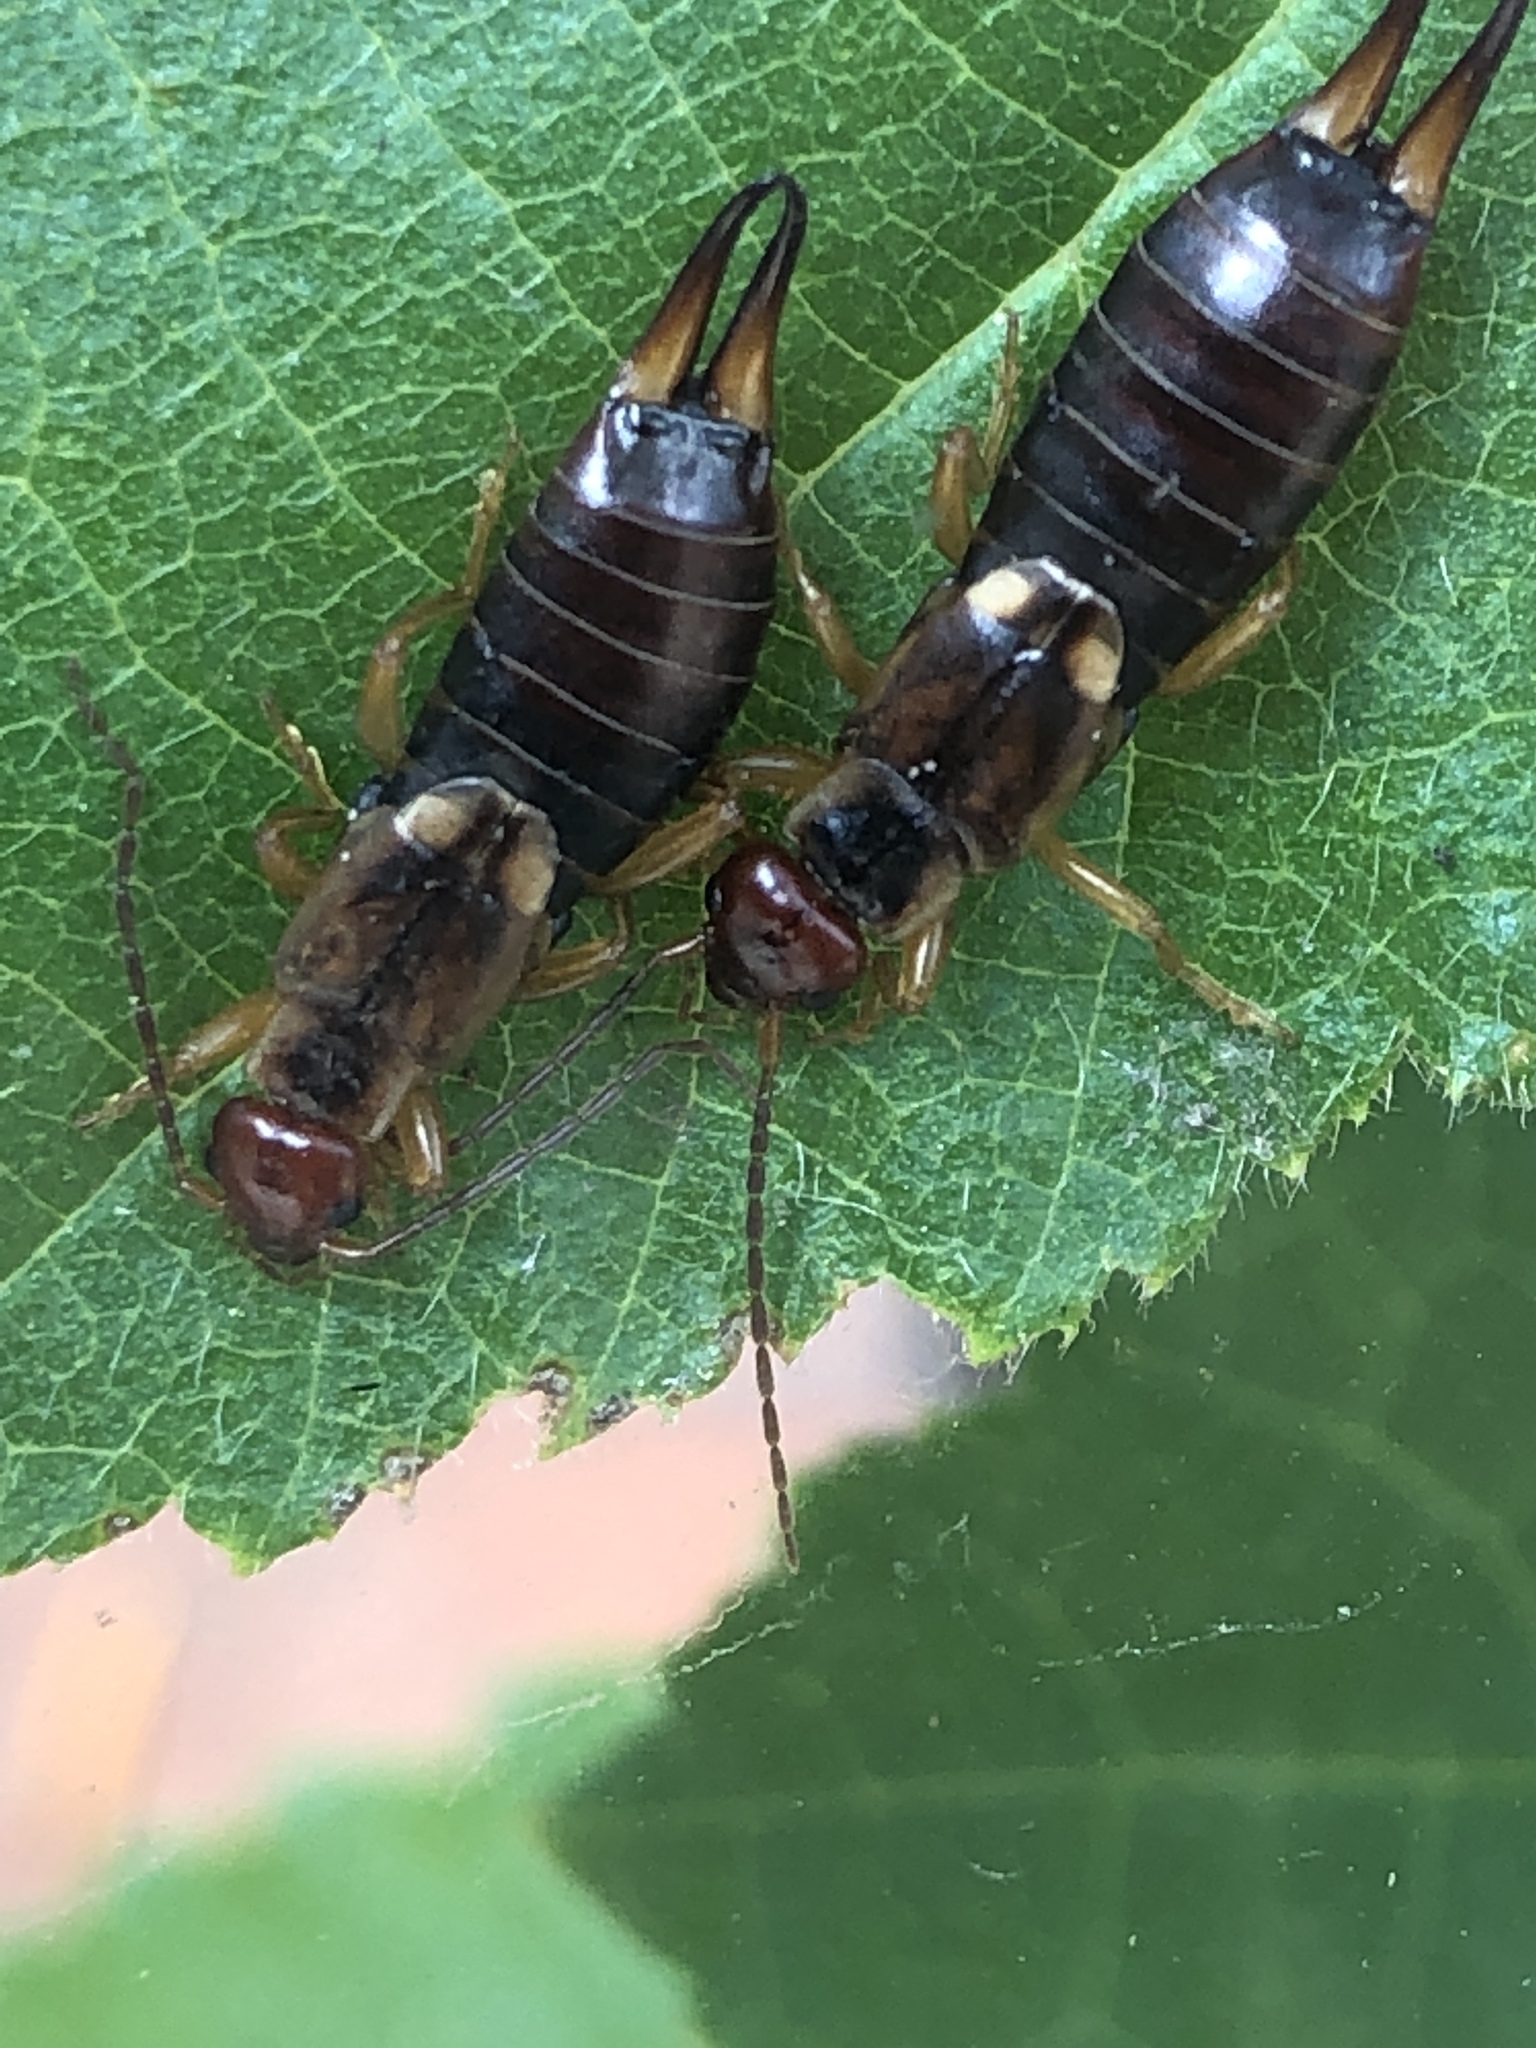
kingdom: Animalia
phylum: Arthropoda
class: Insecta
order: Dermaptera
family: Forficulidae
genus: Forficula
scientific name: Forficula
